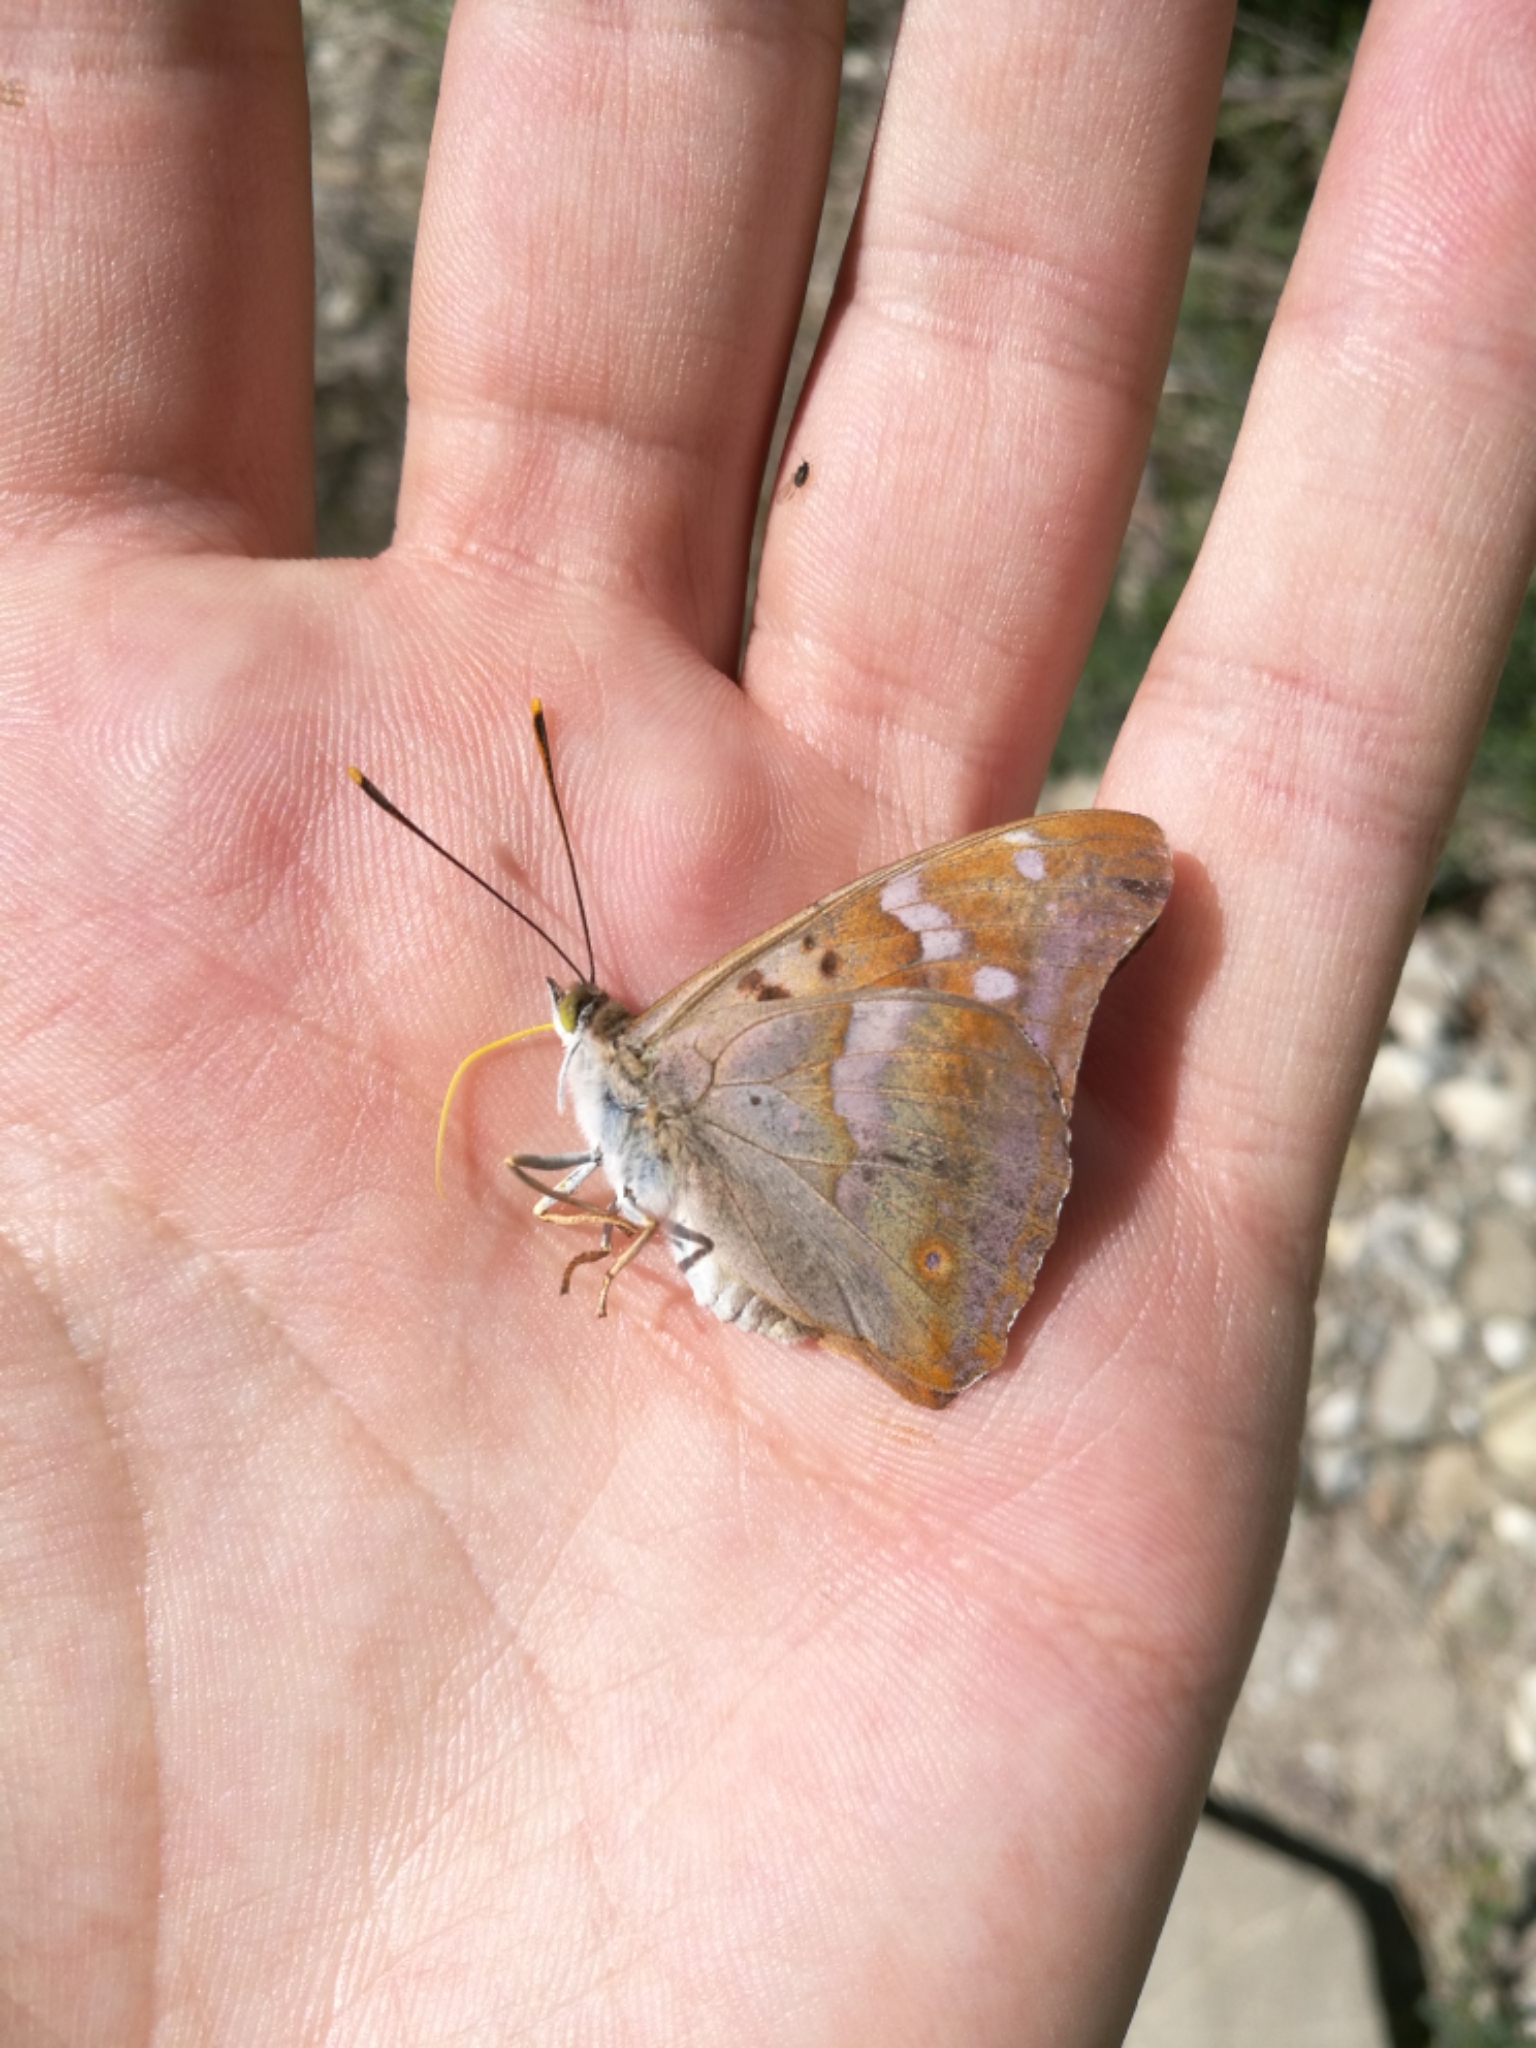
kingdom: Animalia
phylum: Arthropoda
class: Insecta
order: Lepidoptera
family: Nymphalidae
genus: Apatura
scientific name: Apatura ilia
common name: Lesser purple emperor
